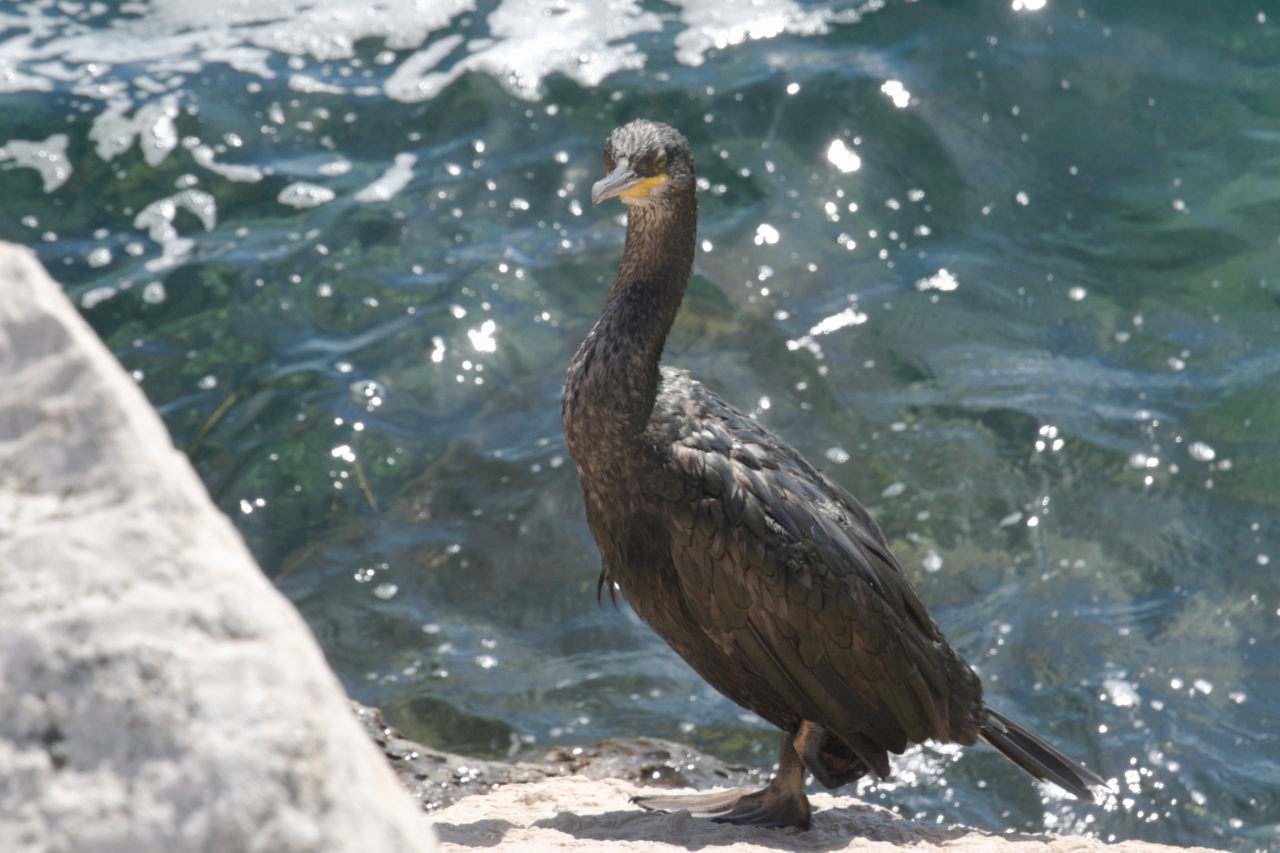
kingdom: Animalia
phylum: Chordata
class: Aves
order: Suliformes
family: Phalacrocoracidae
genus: Phalacrocorax
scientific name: Phalacrocorax aristotelis
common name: European shag
